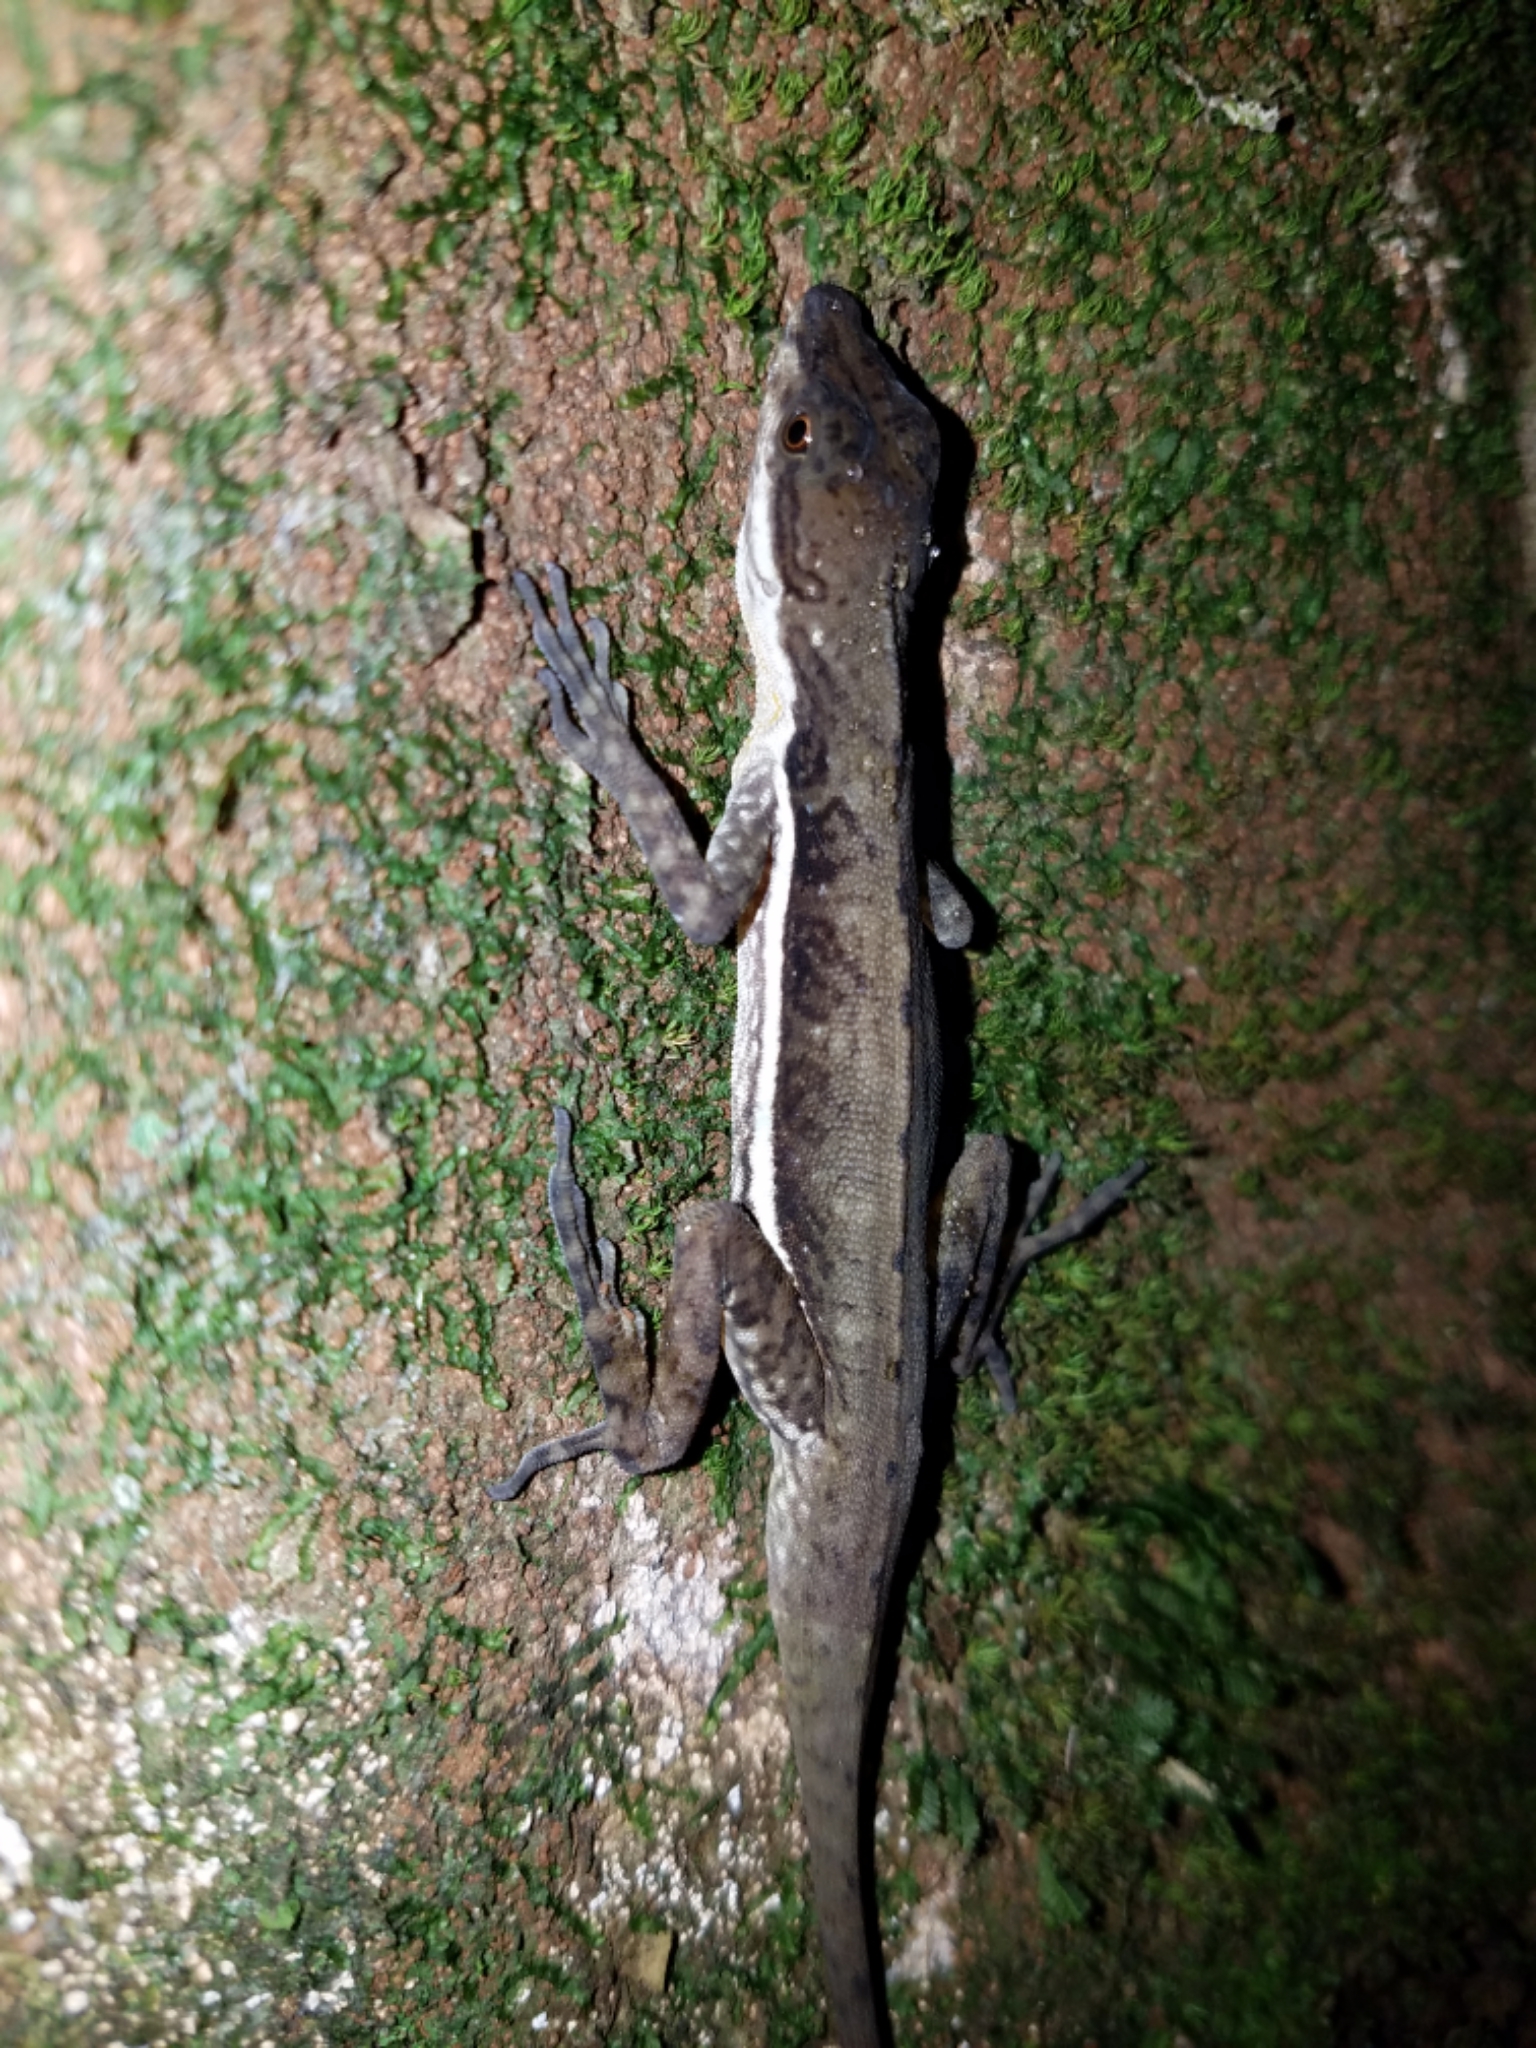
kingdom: Animalia
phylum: Chordata
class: Squamata
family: Dactyloidae
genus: Anolis
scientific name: Anolis oxylophus
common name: Stream anole
